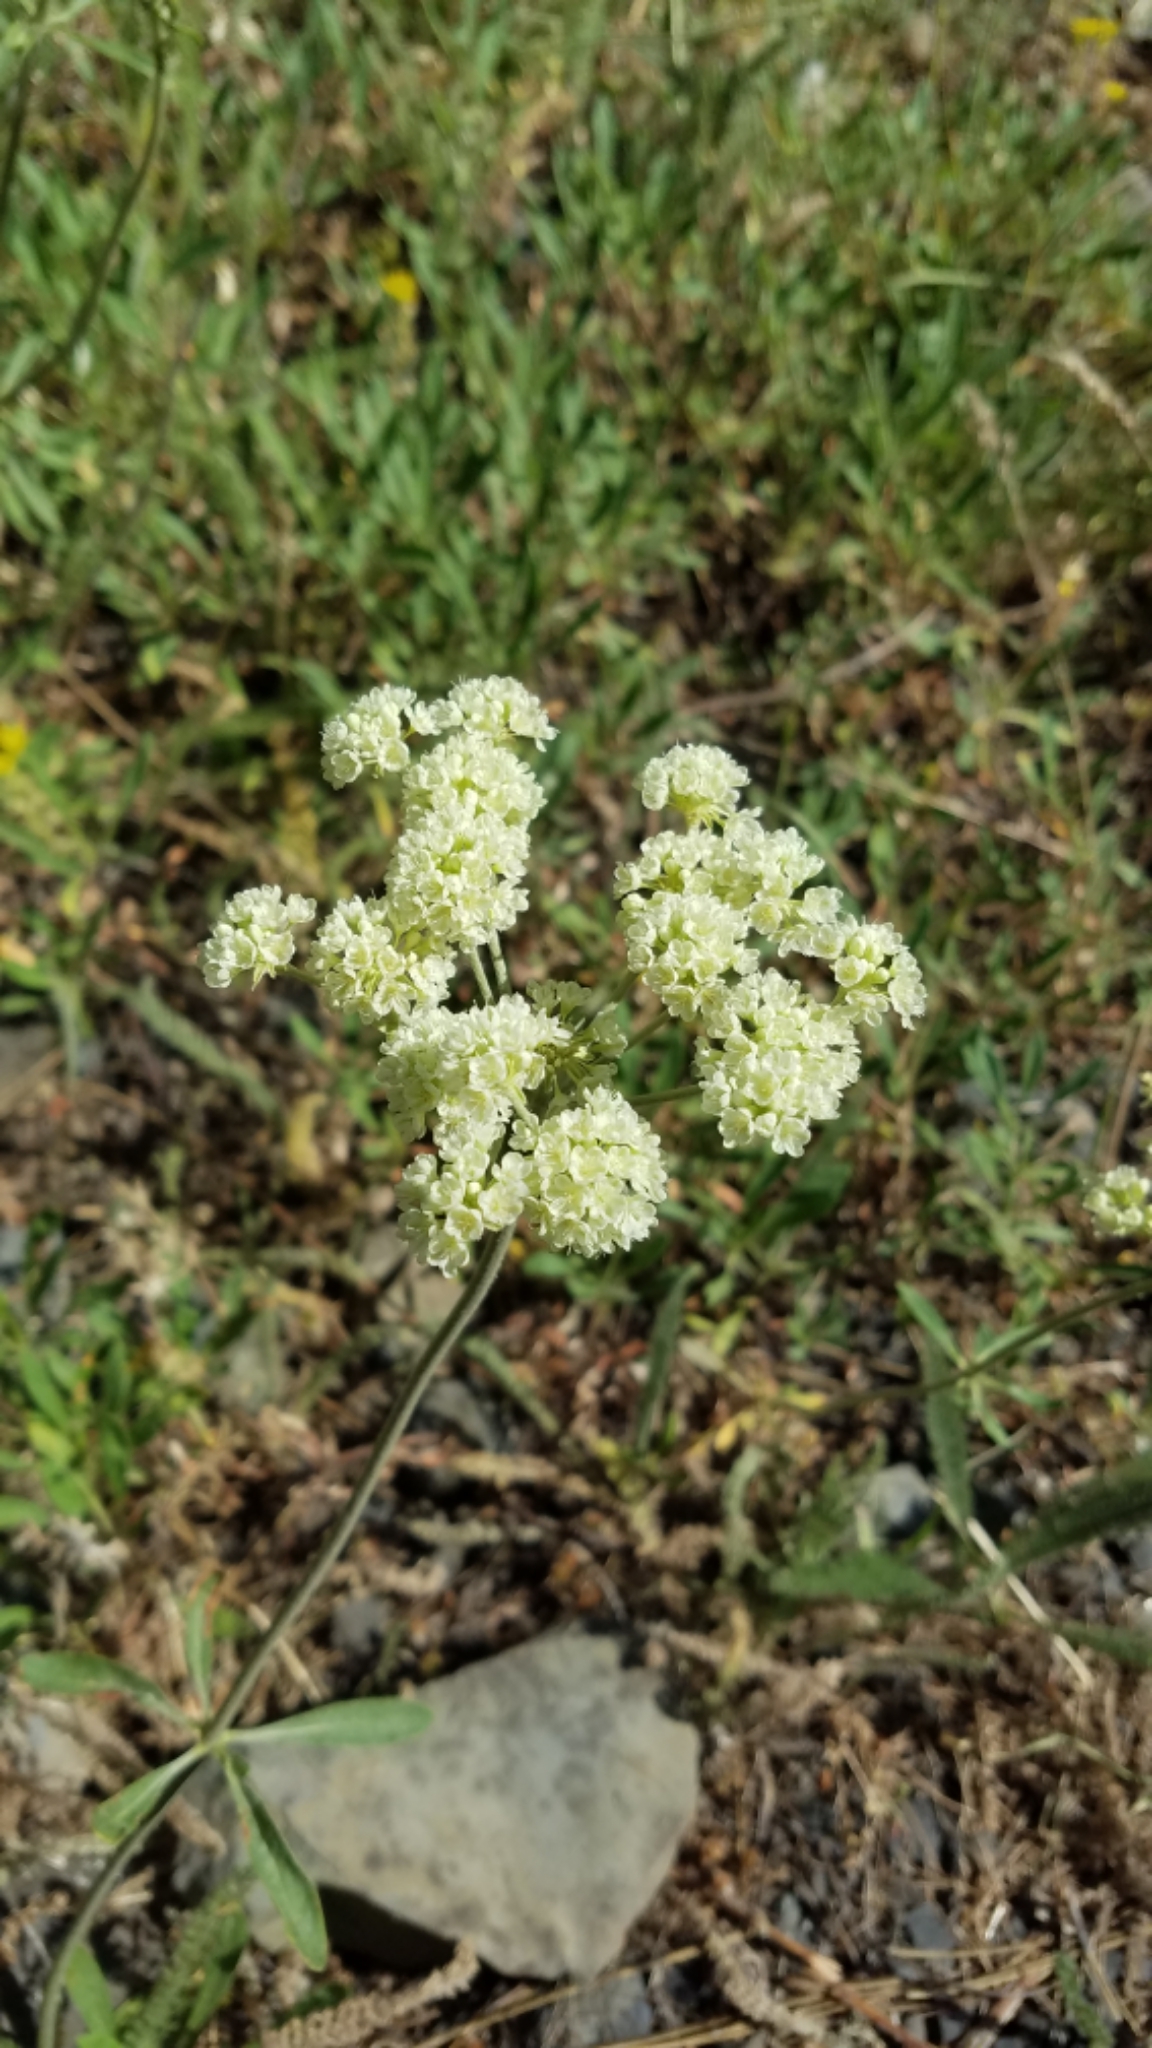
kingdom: Plantae
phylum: Tracheophyta
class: Magnoliopsida
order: Caryophyllales
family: Polygonaceae
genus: Eriogonum
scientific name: Eriogonum heracleoides
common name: Wyeth's buckwheat
